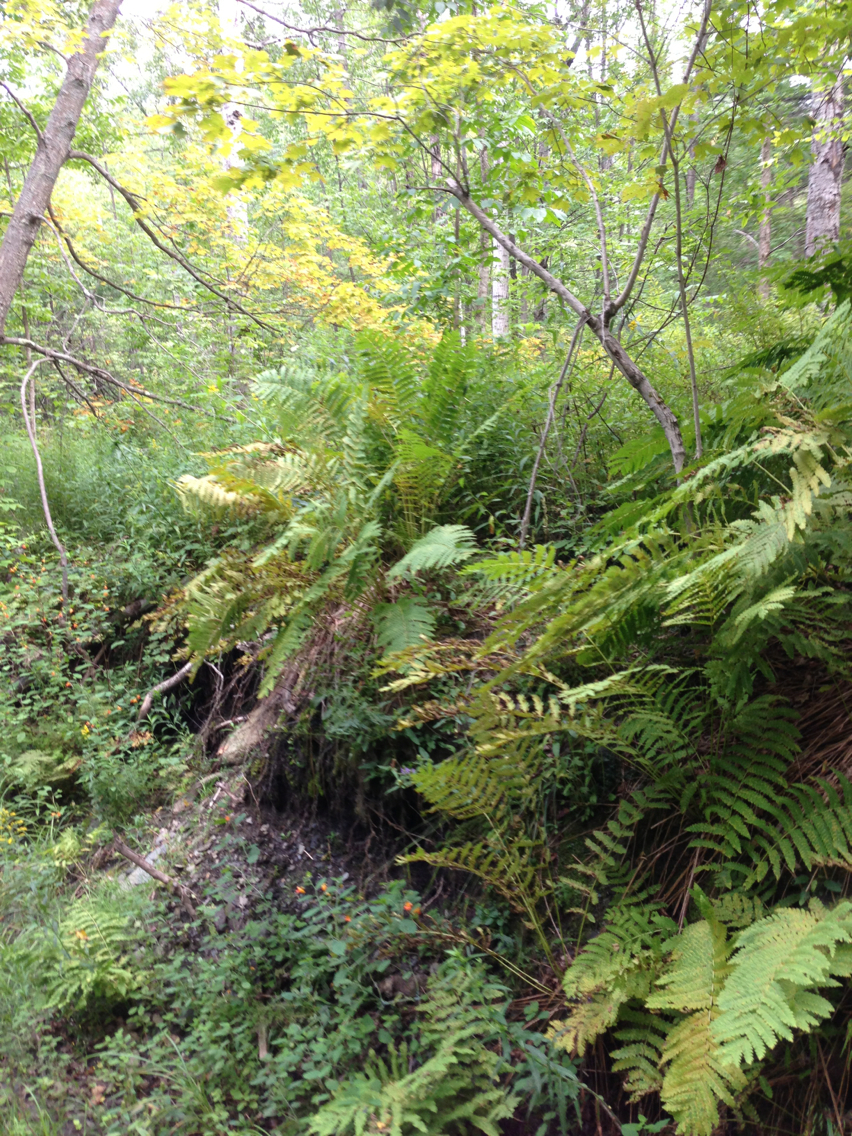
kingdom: Plantae
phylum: Tracheophyta
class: Polypodiopsida
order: Osmundales
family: Osmundaceae
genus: Claytosmunda
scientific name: Claytosmunda claytoniana
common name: Clayton's fern
